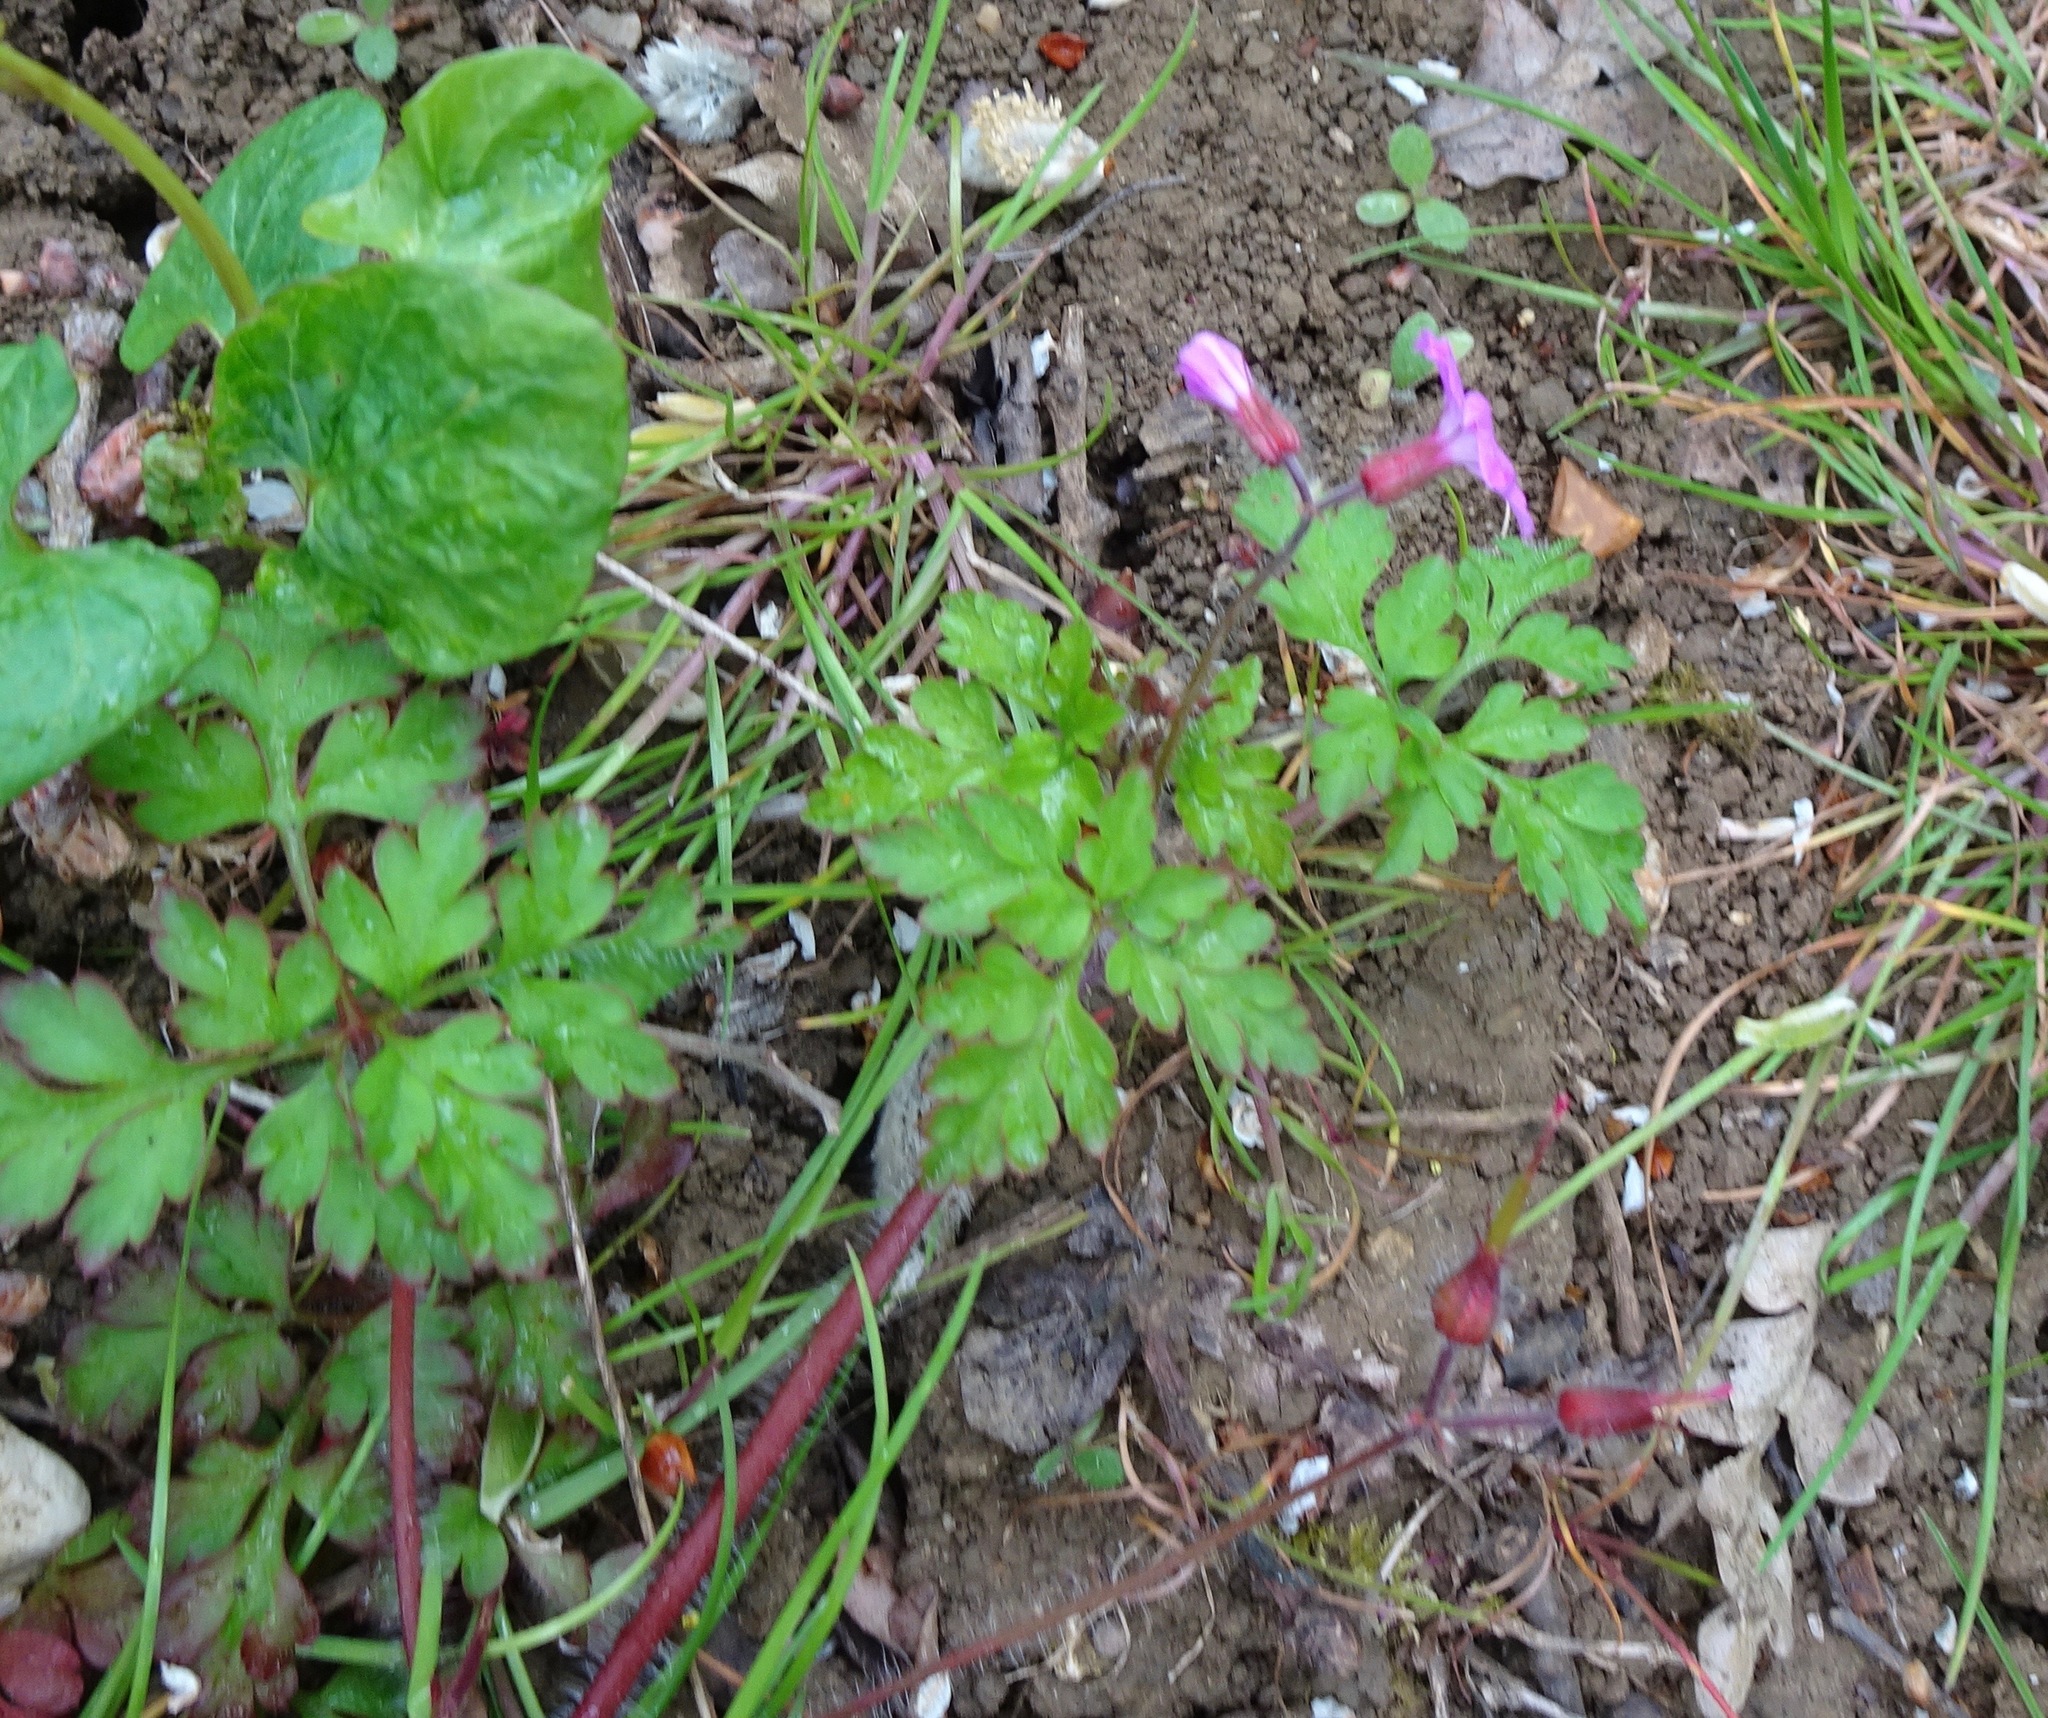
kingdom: Plantae
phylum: Tracheophyta
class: Magnoliopsida
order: Geraniales
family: Geraniaceae
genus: Geranium
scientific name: Geranium robertianum
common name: Herb-robert
